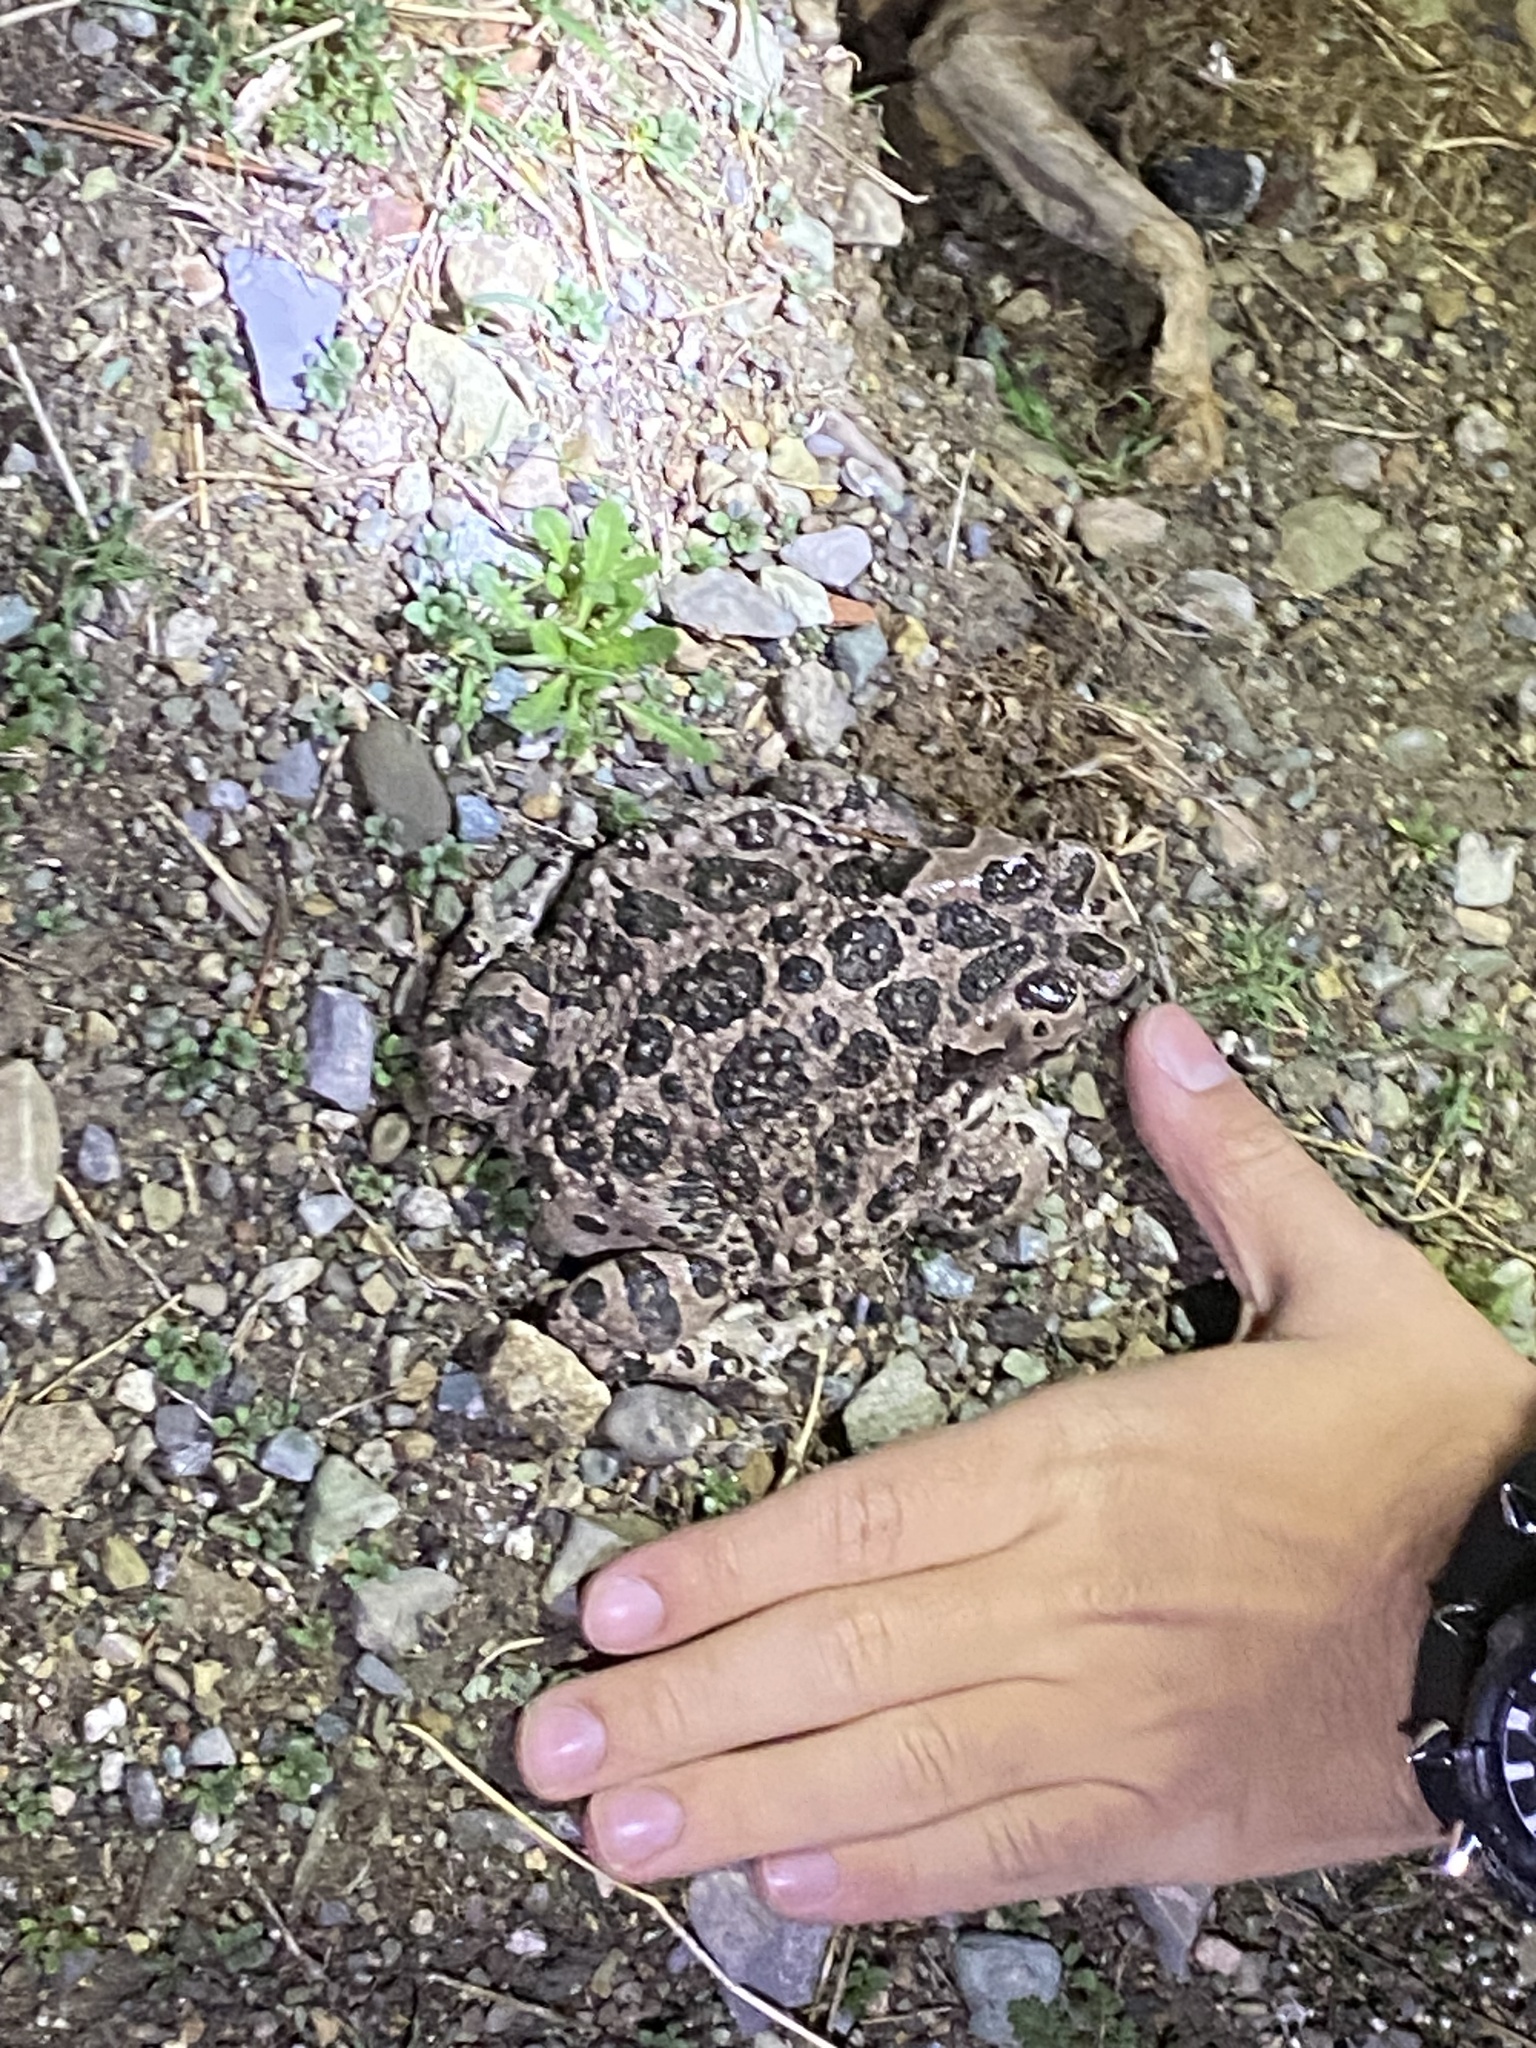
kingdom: Animalia
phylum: Chordata
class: Amphibia
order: Anura
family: Bufonidae
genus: Bufotes
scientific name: Bufotes viridis
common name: European green toad
